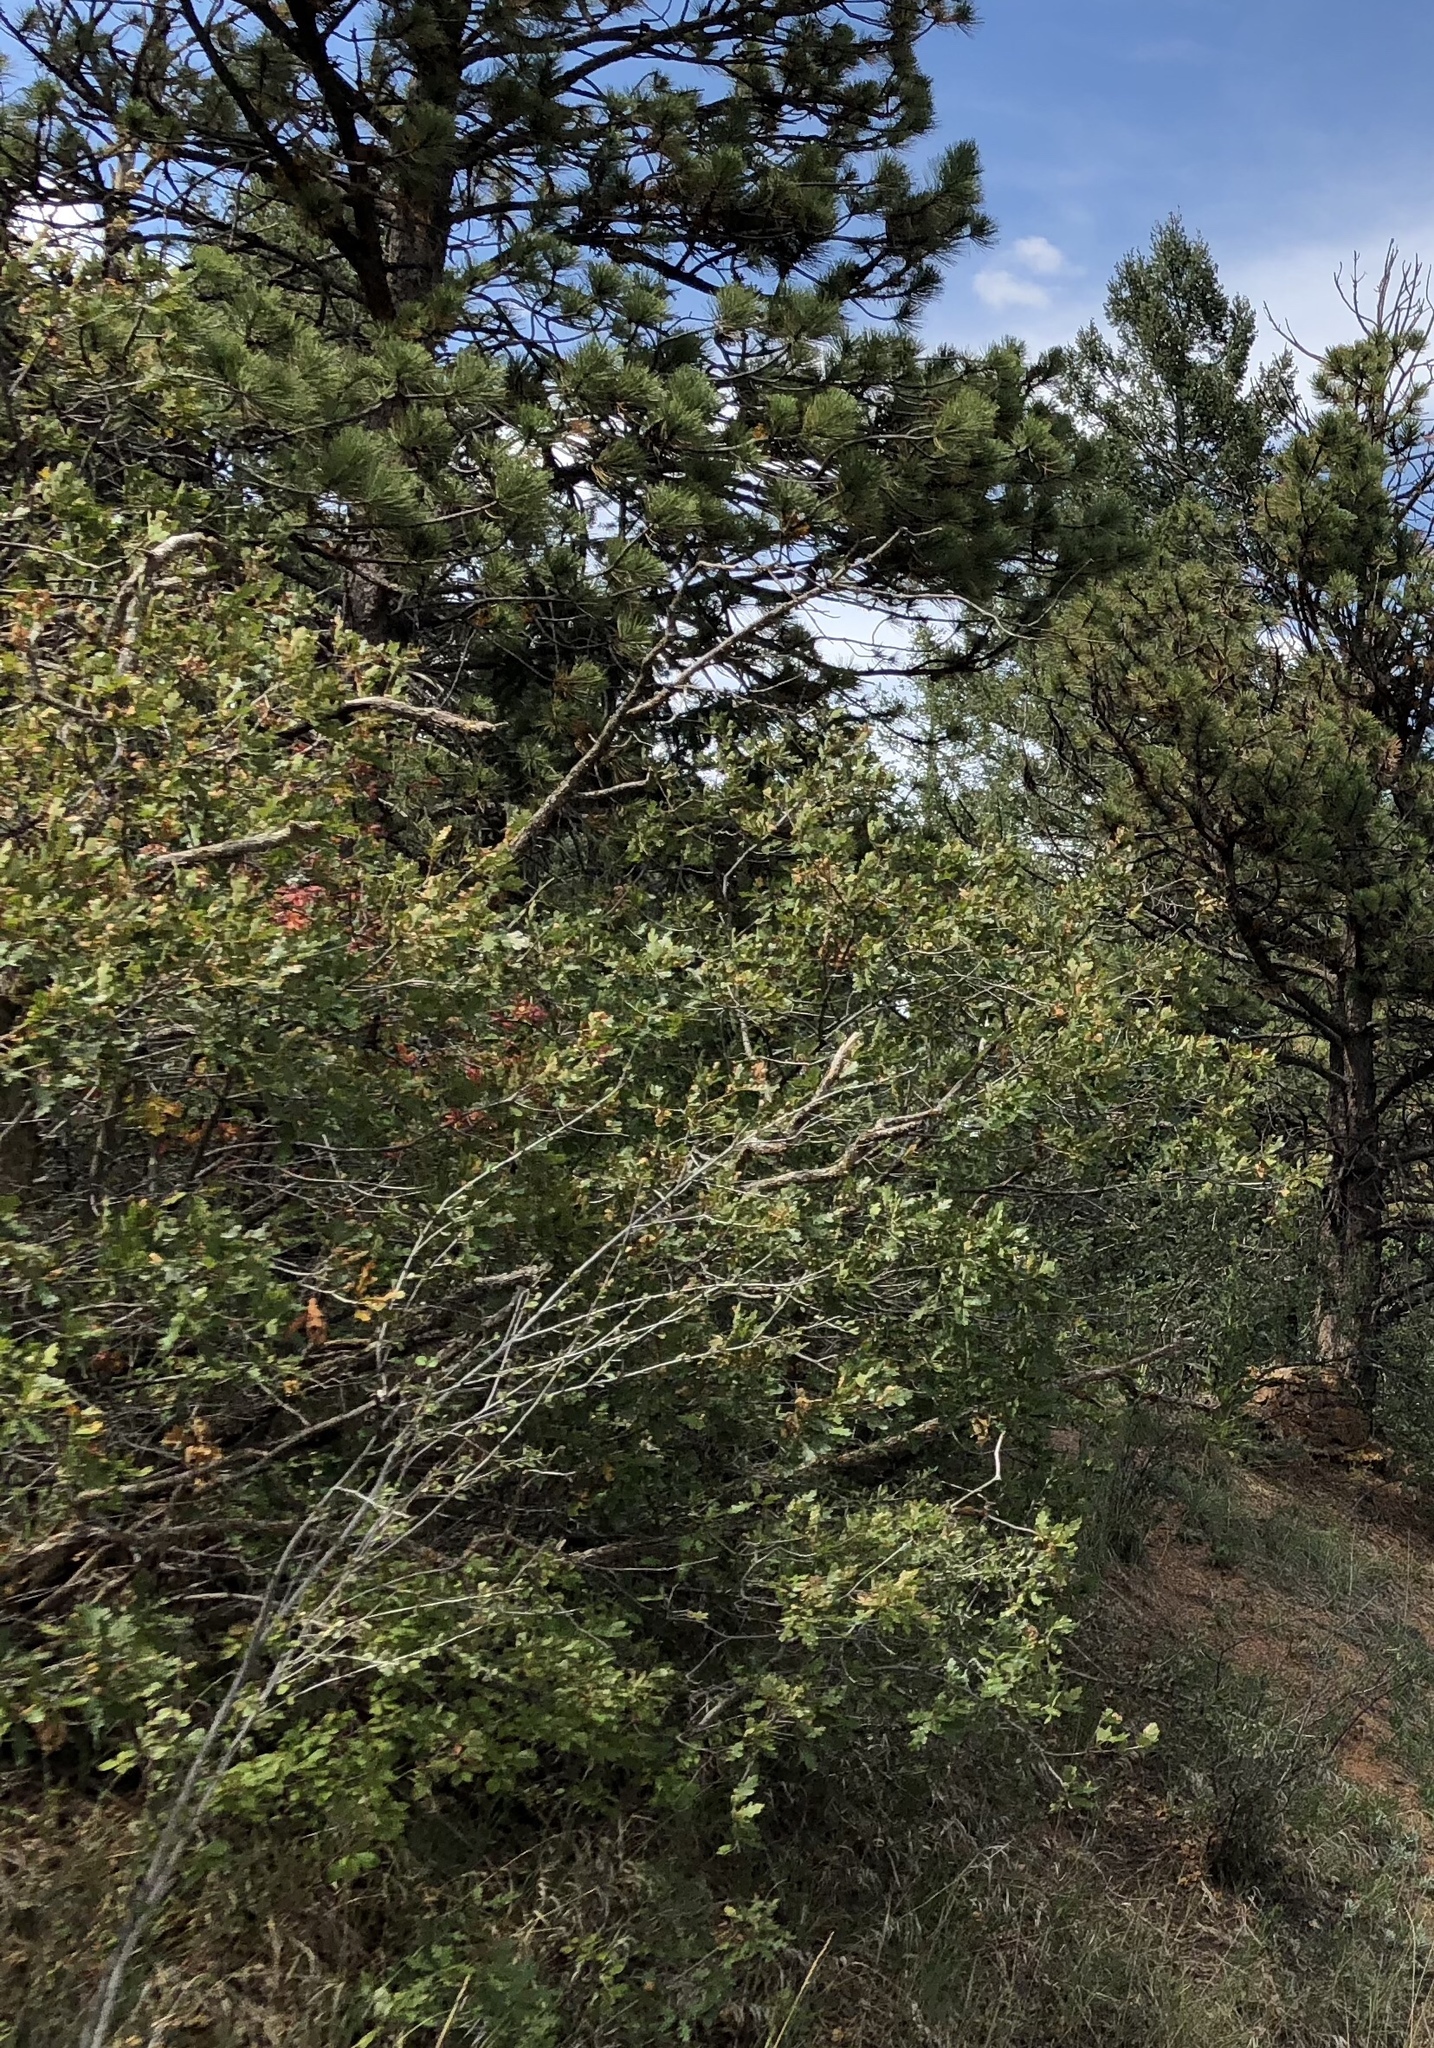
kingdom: Plantae
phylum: Tracheophyta
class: Magnoliopsida
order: Fagales
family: Fagaceae
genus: Quercus
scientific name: Quercus gambelii
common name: Gambel oak
